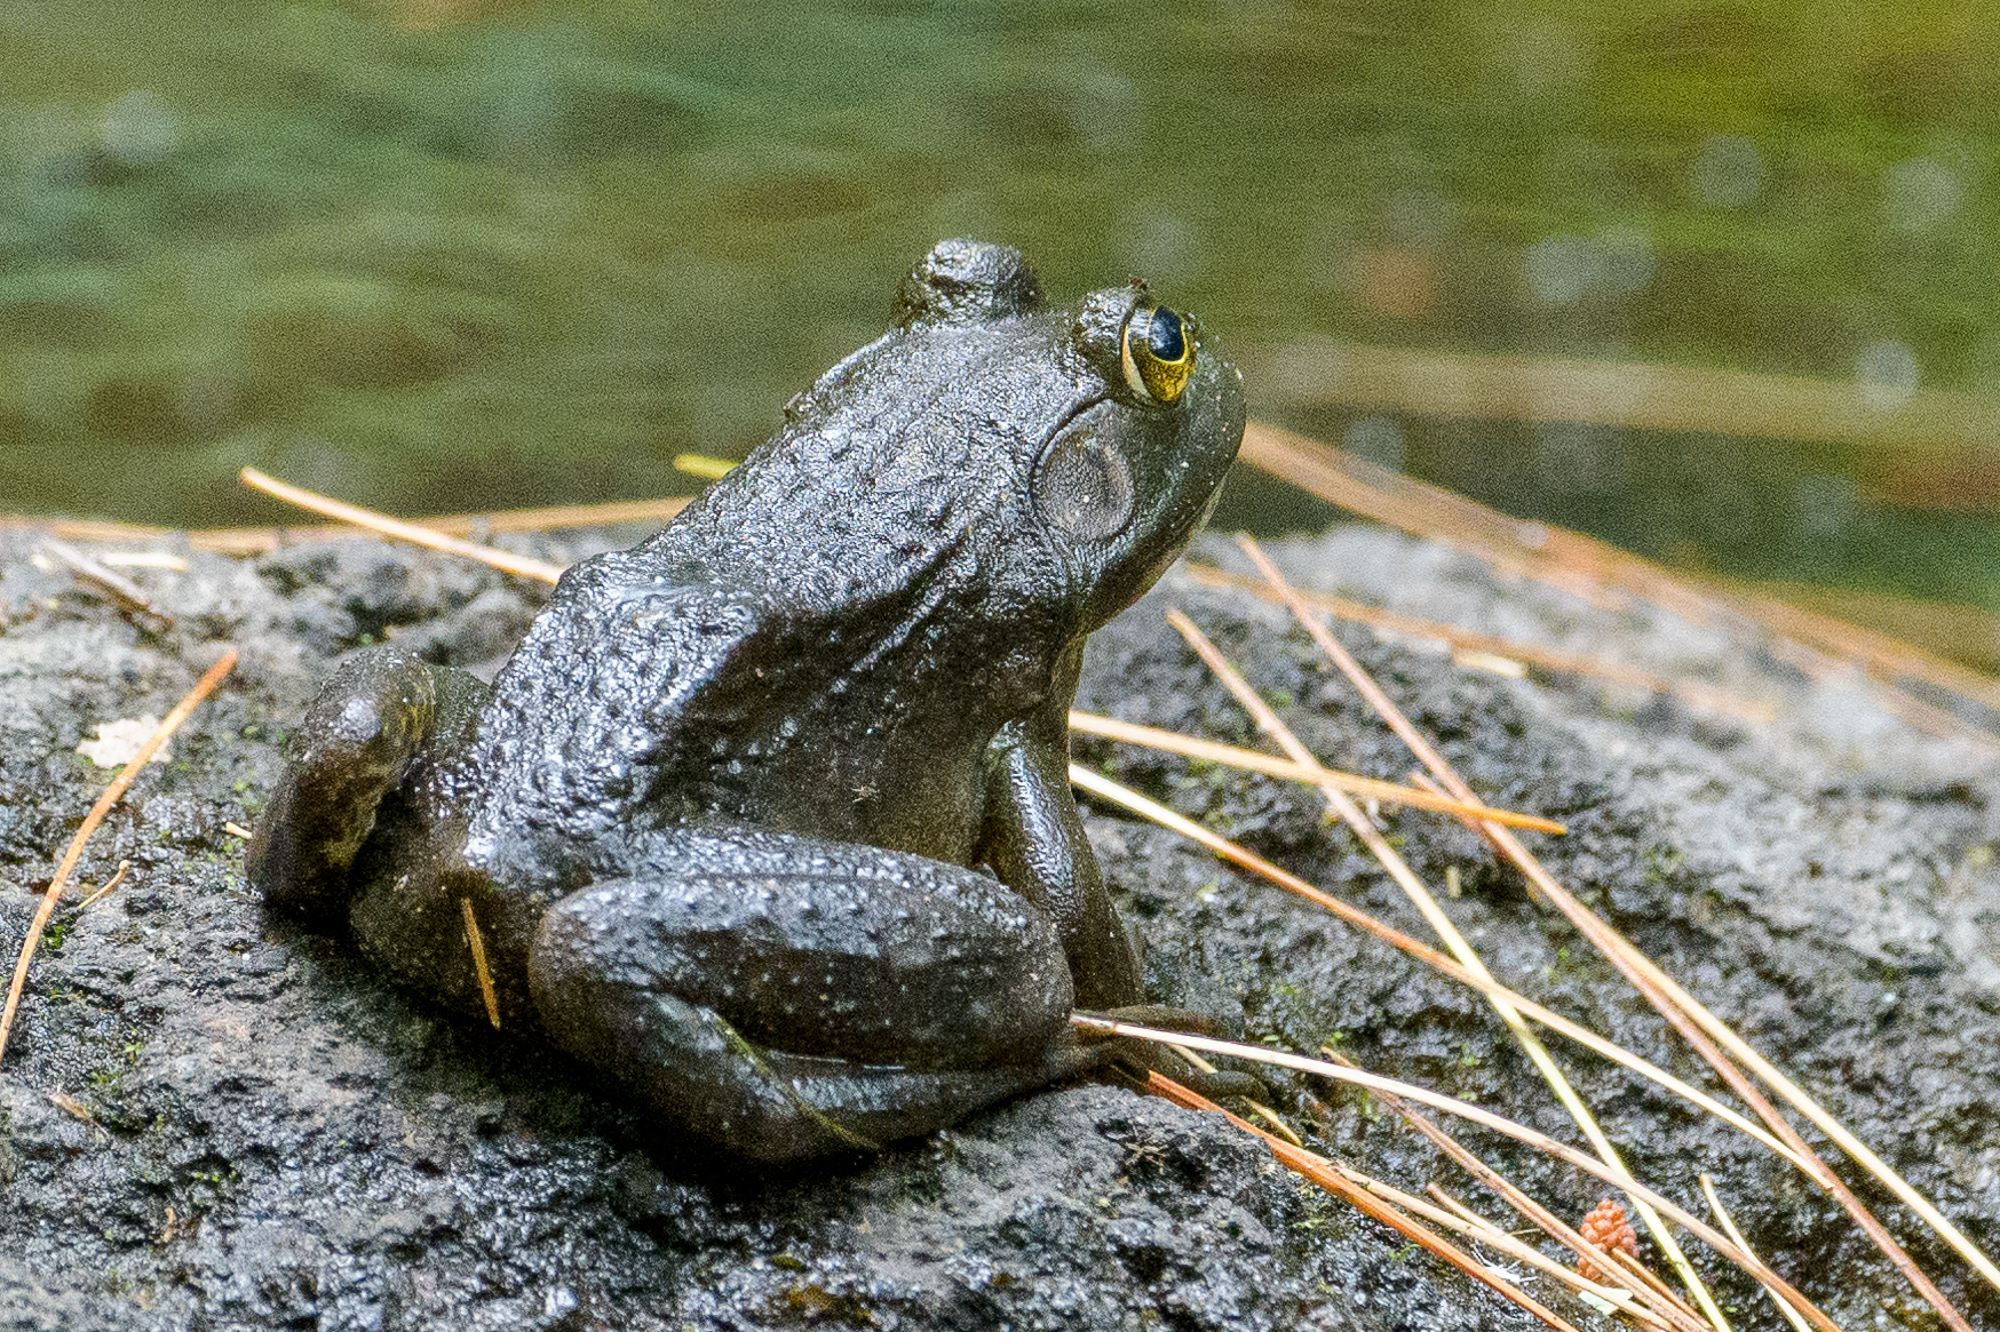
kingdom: Animalia
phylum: Chordata
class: Amphibia
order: Anura
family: Ranidae
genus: Lithobates
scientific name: Lithobates catesbeianus
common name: American bullfrog
